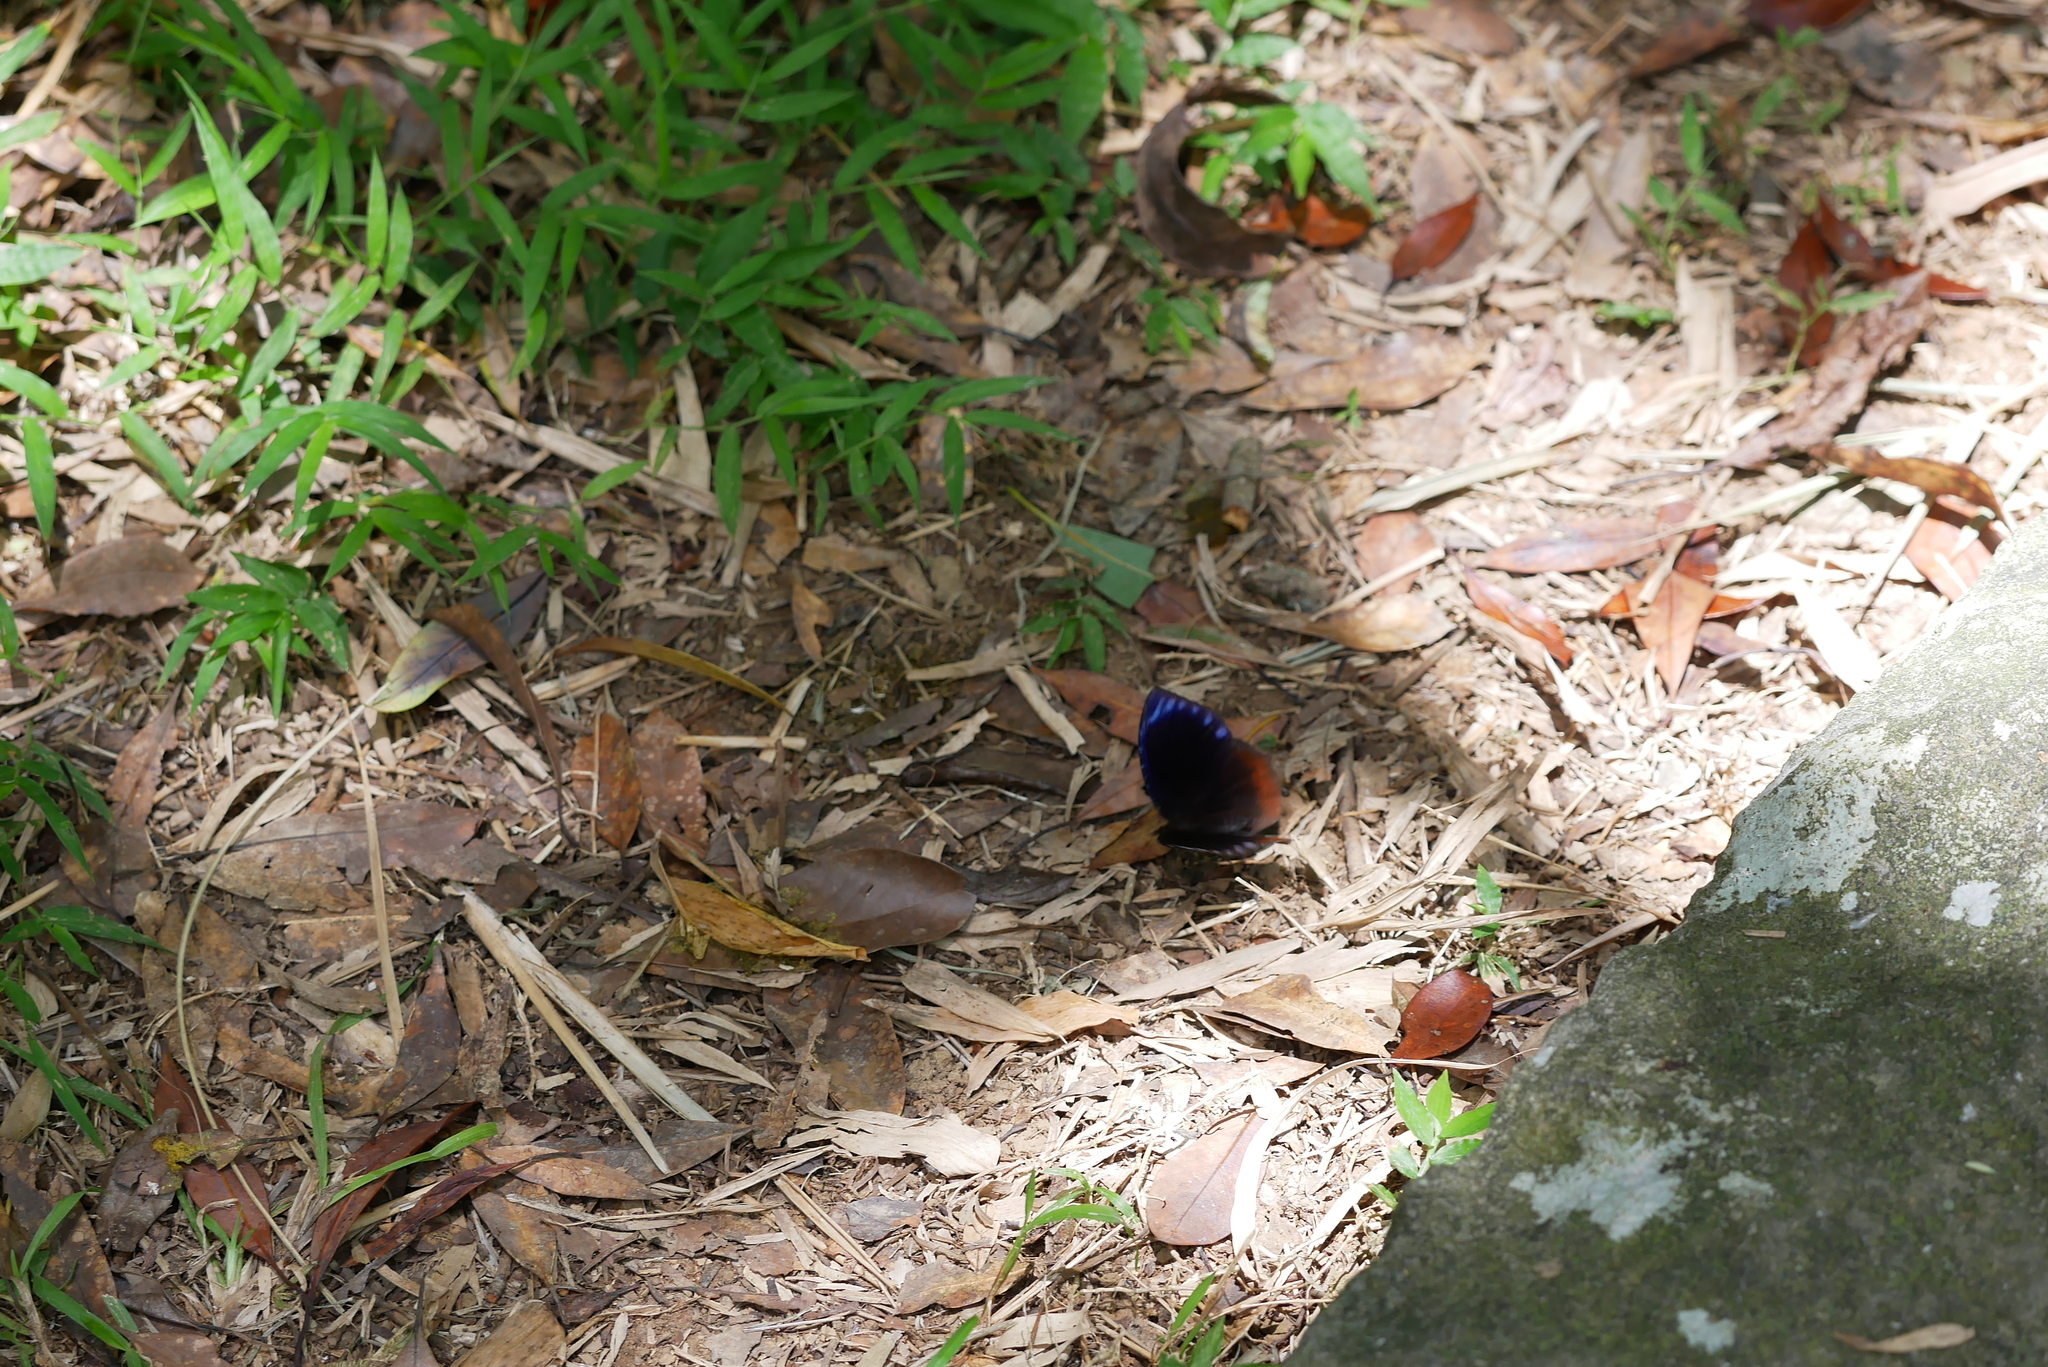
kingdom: Animalia
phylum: Arthropoda
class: Insecta
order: Lepidoptera
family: Nymphalidae
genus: Elymnias
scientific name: Elymnias hypermnestra
